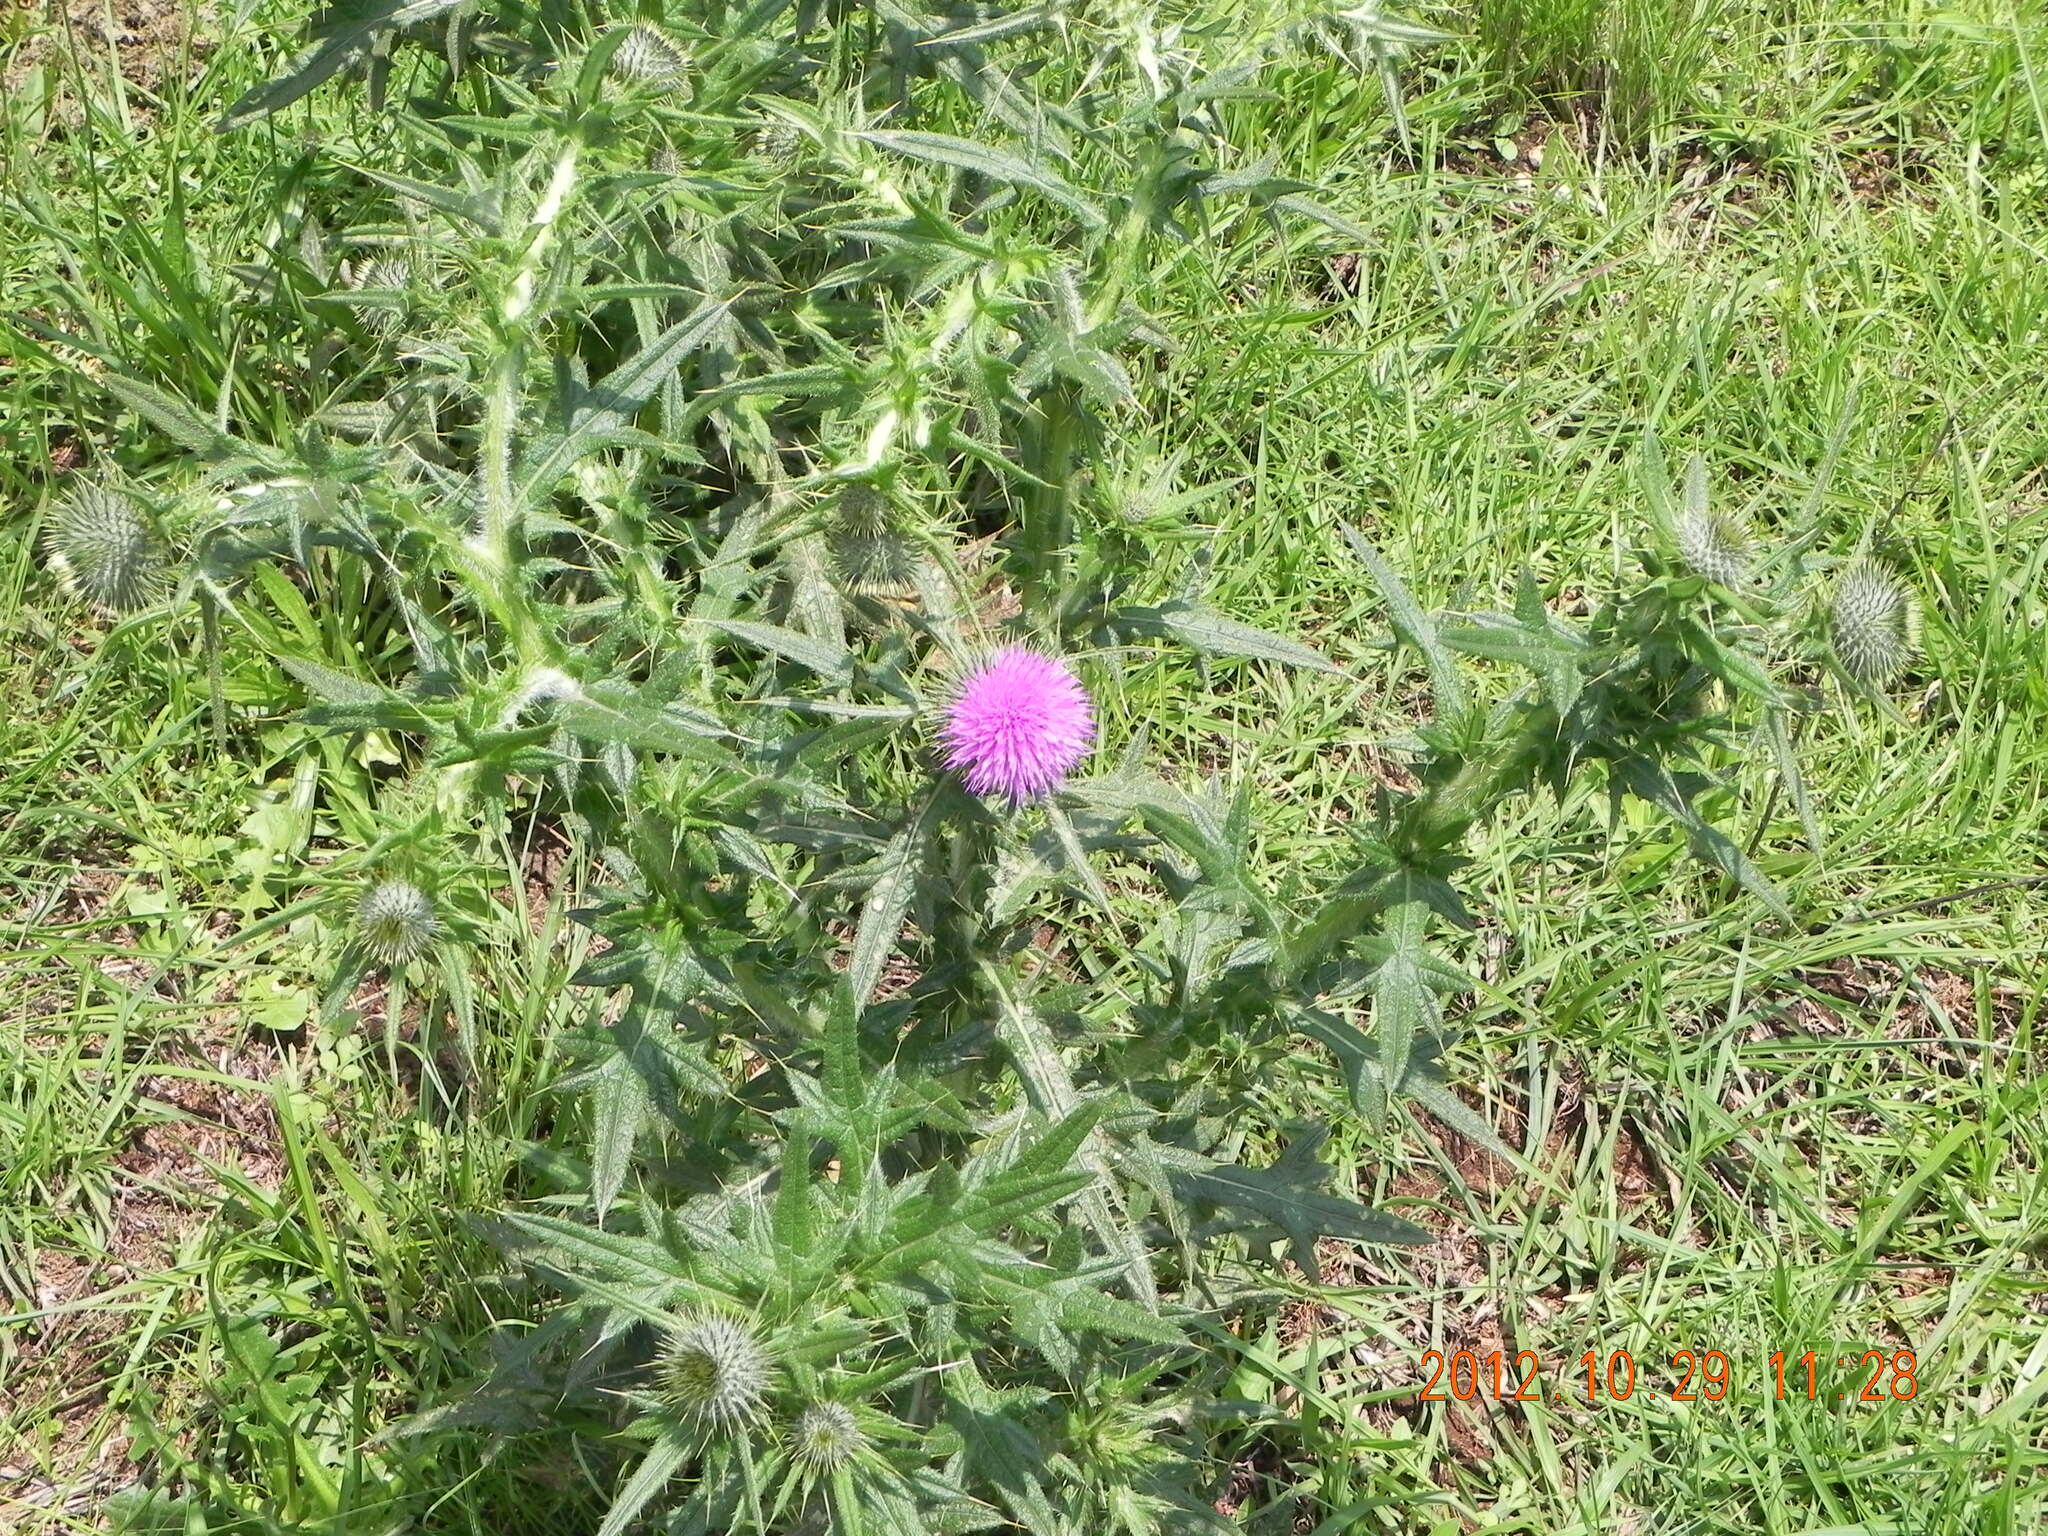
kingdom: Plantae
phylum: Tracheophyta
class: Magnoliopsida
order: Asterales
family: Asteraceae
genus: Cirsium
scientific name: Cirsium vulgare
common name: Bull thistle
